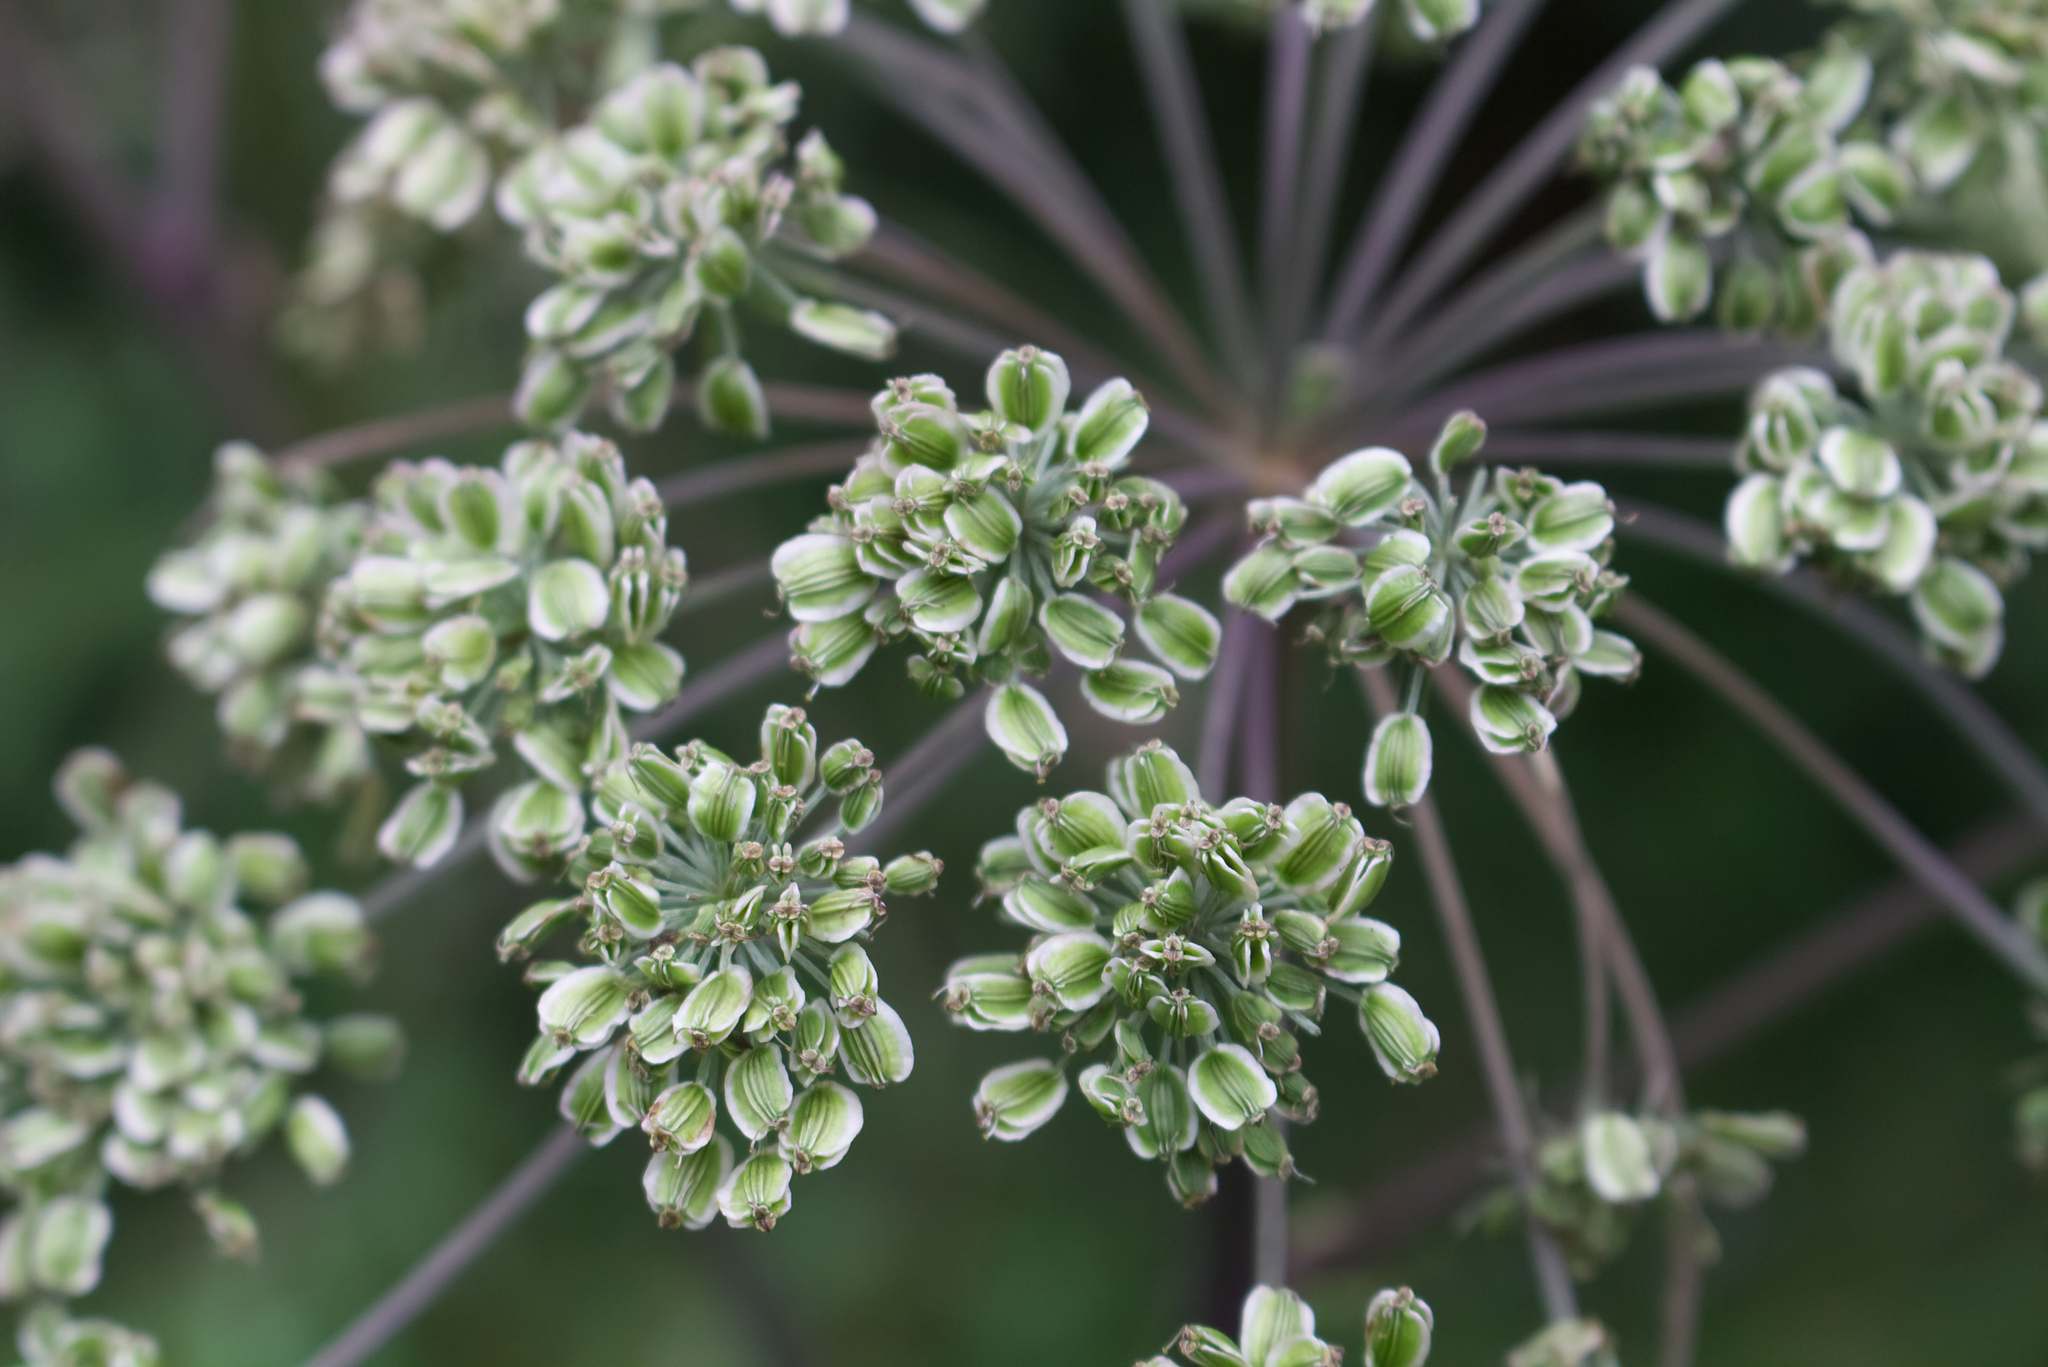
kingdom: Plantae
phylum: Tracheophyta
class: Magnoliopsida
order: Apiales
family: Apiaceae
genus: Angelica
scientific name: Angelica sylvestris
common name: Wild angelica
